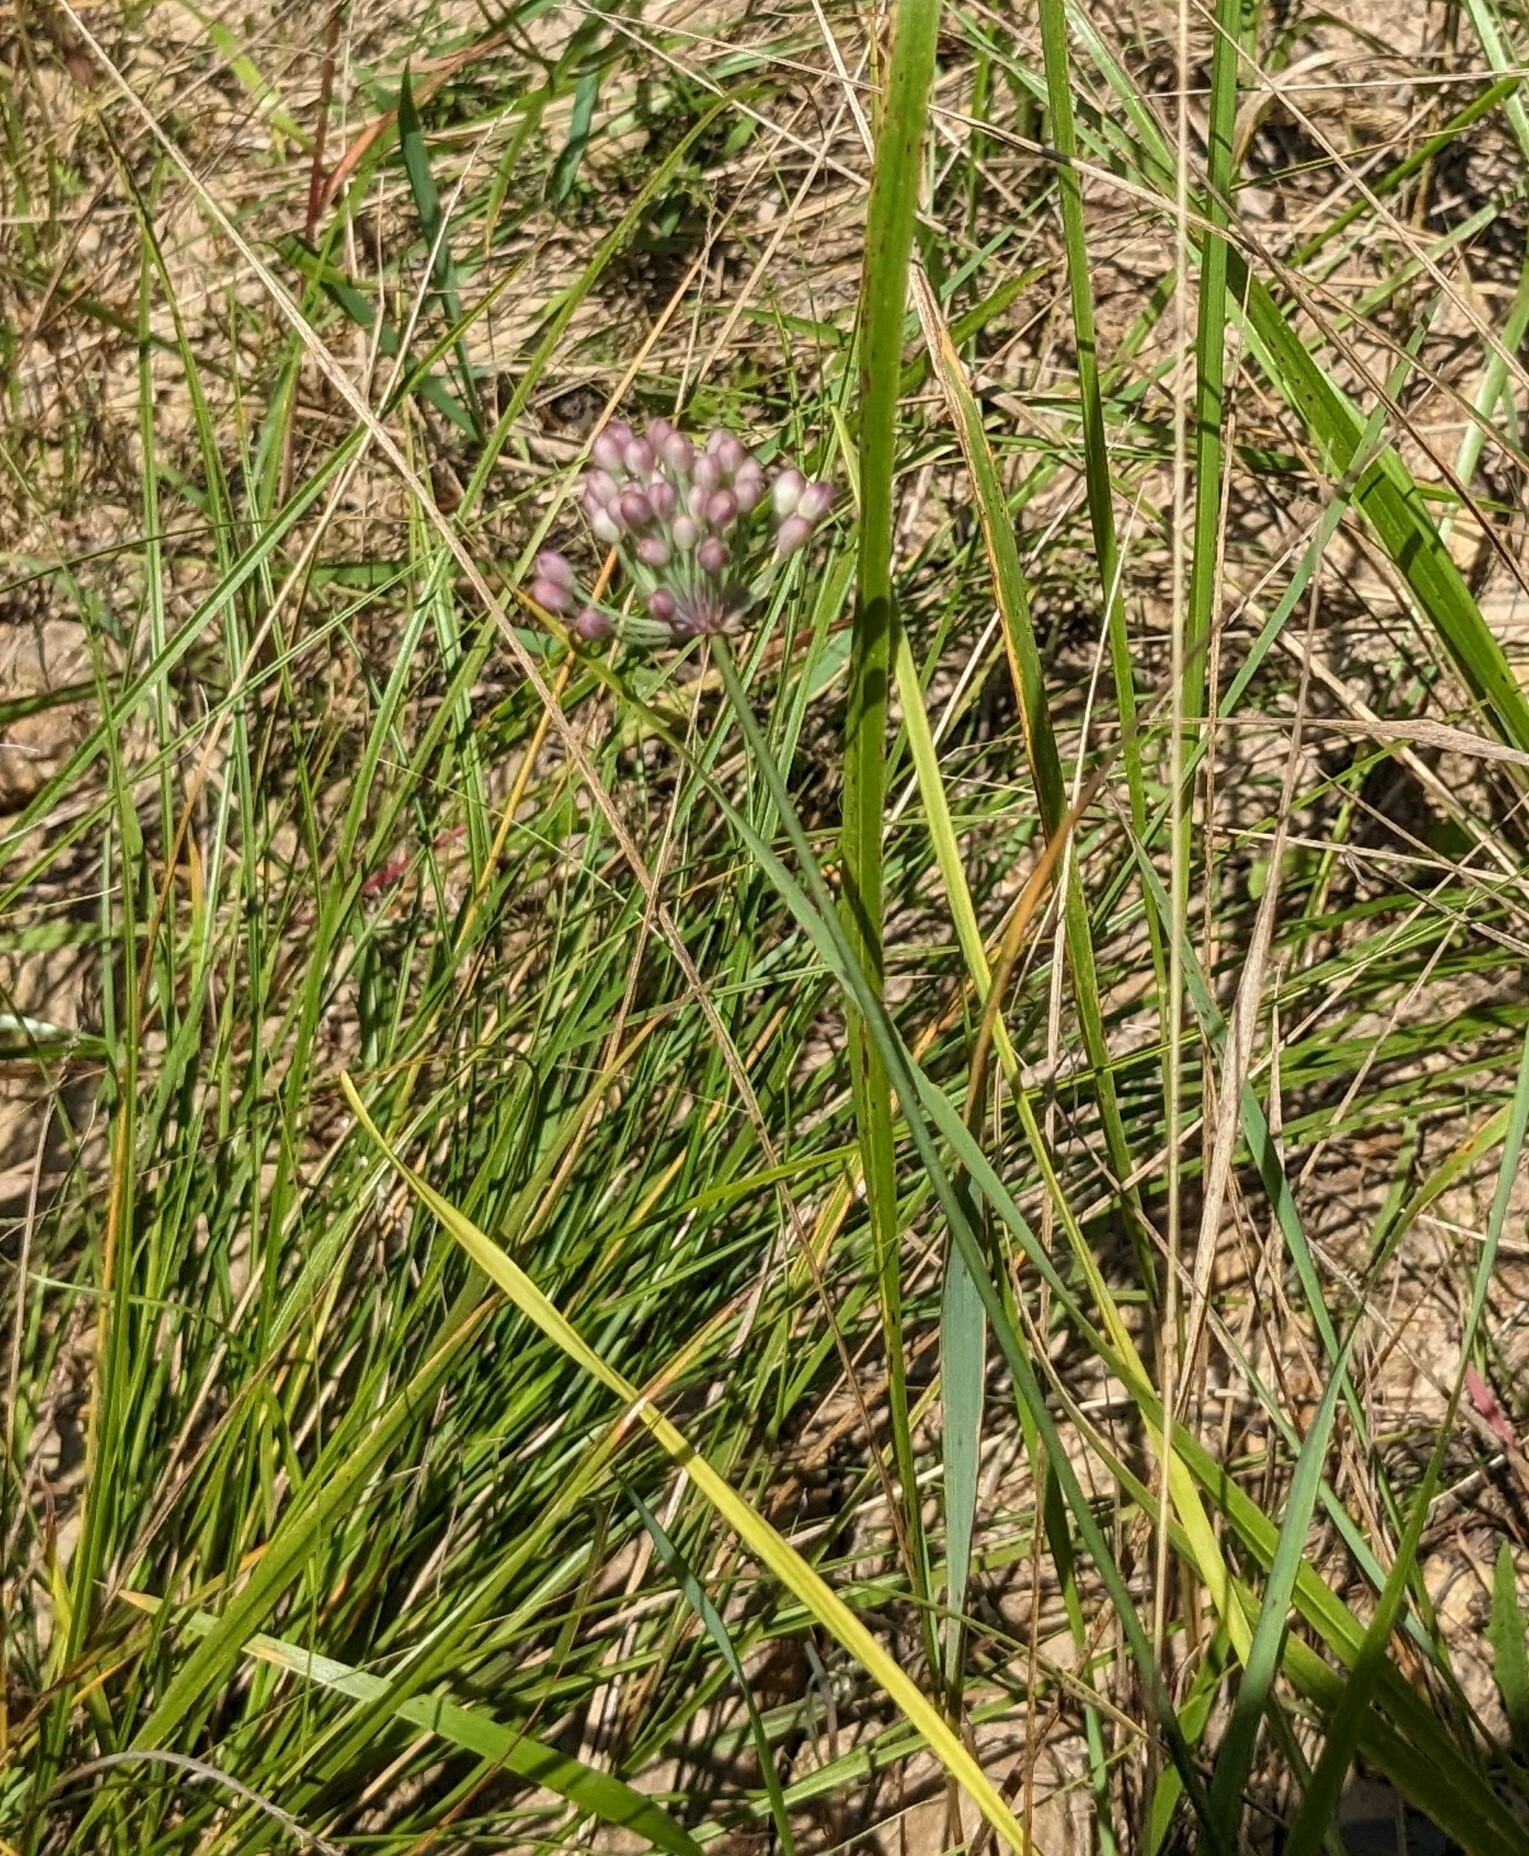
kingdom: Plantae
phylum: Tracheophyta
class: Liliopsida
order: Asparagales
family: Amaryllidaceae
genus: Allium
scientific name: Allium sacculiferum
